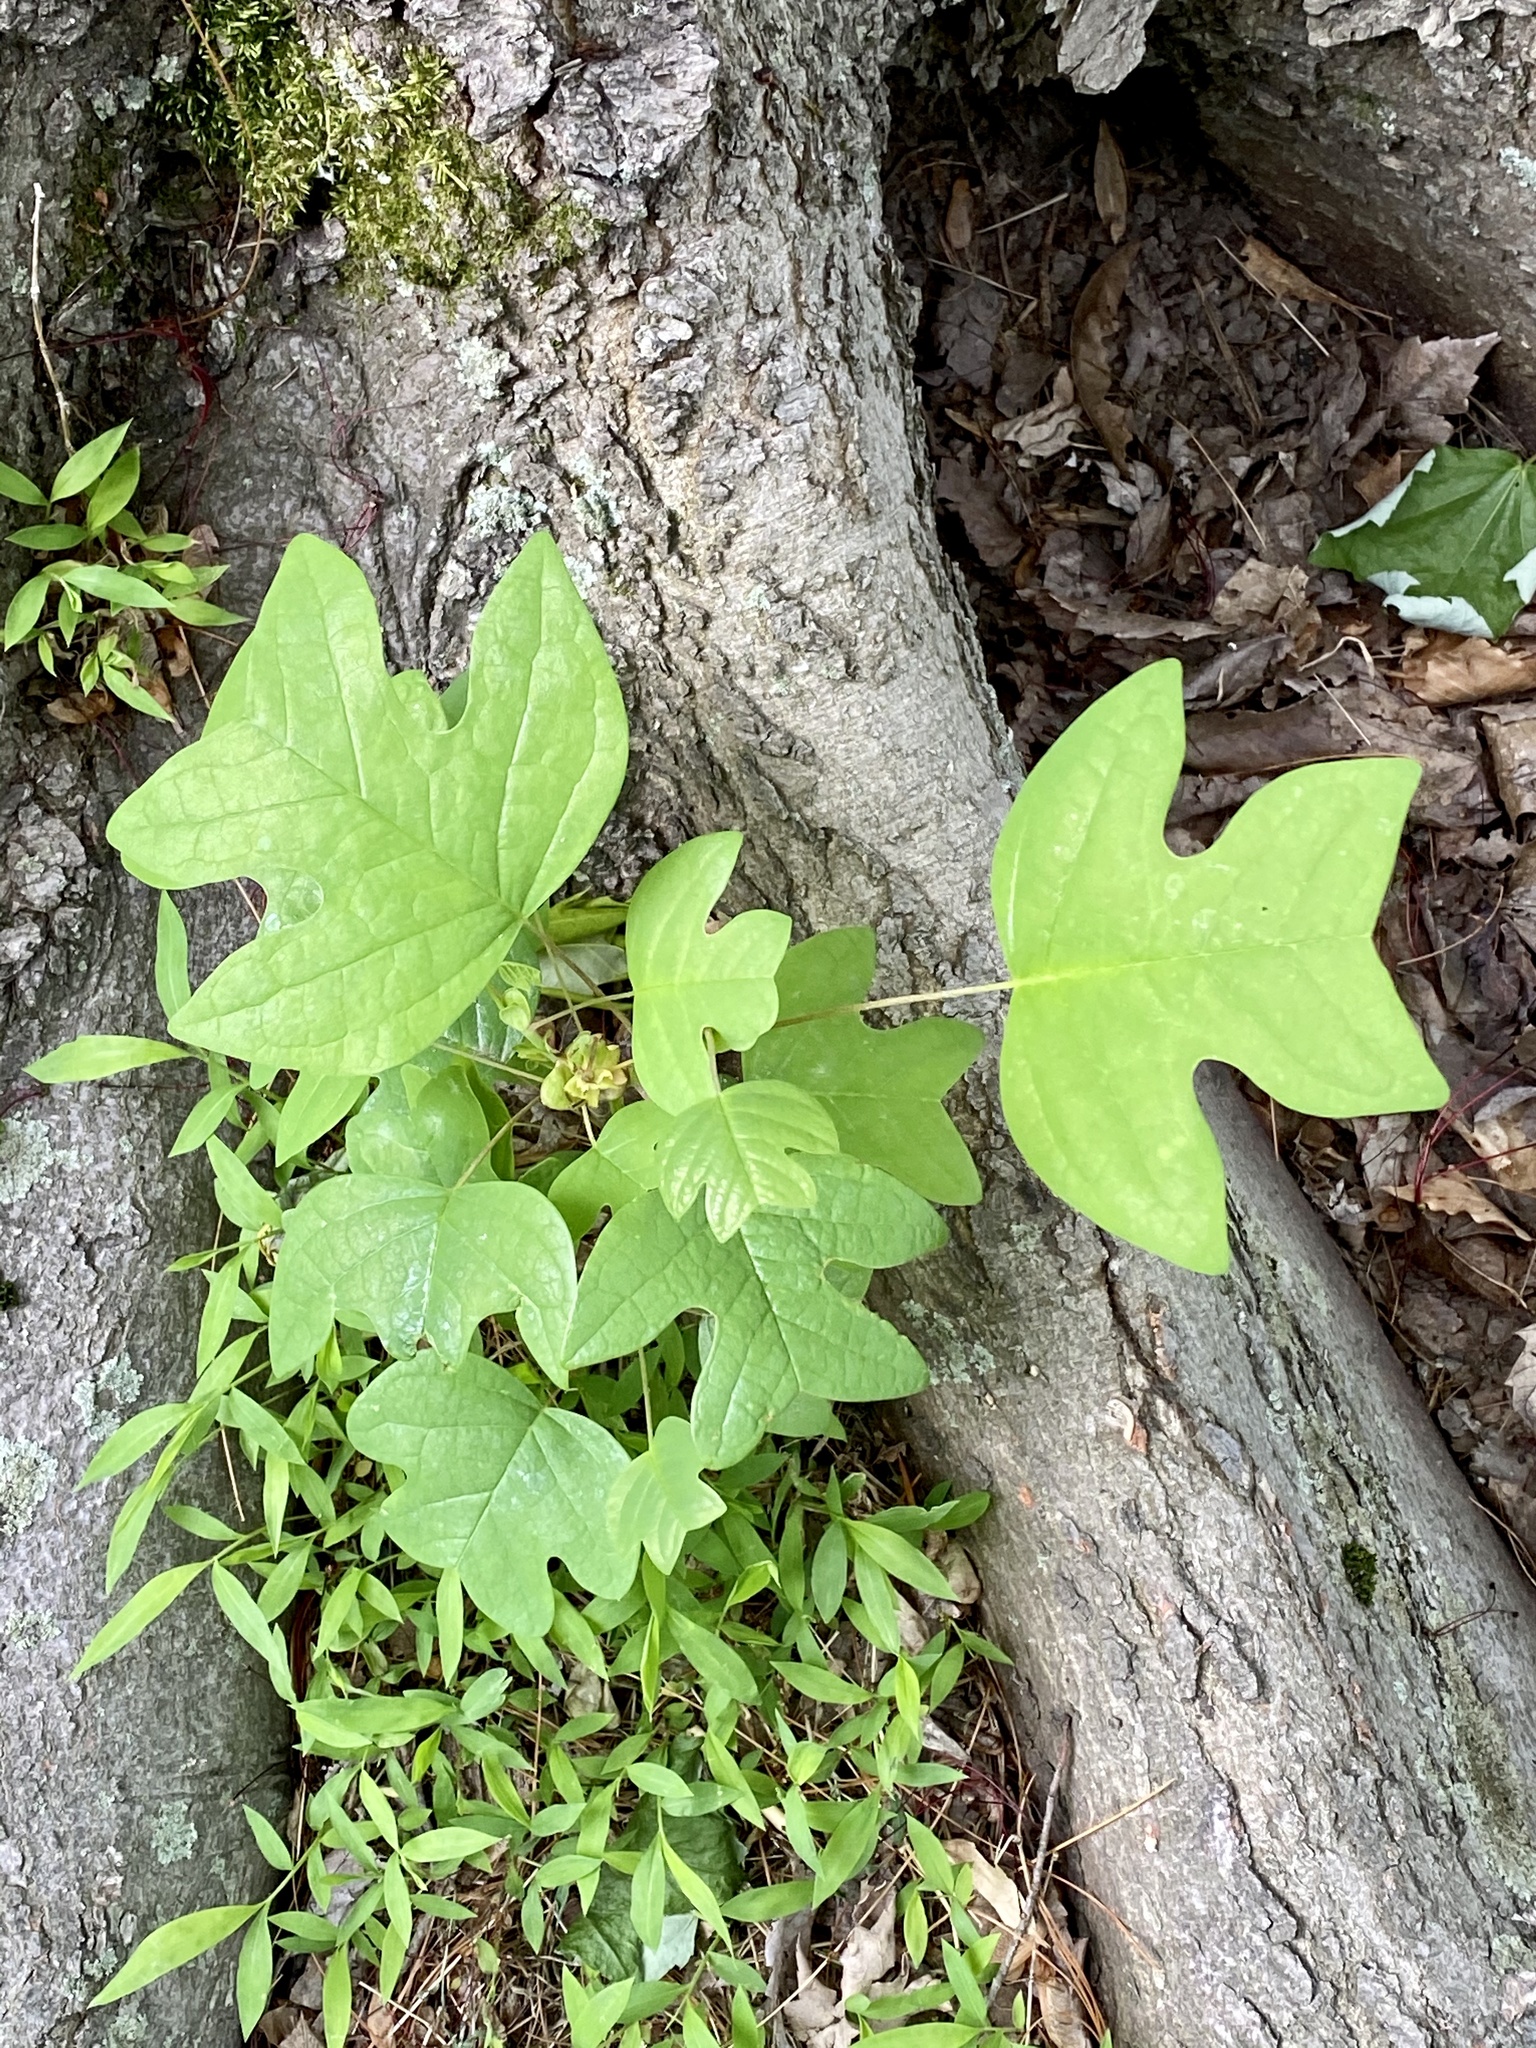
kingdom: Plantae
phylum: Tracheophyta
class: Magnoliopsida
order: Magnoliales
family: Magnoliaceae
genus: Liriodendron
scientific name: Liriodendron tulipifera
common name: Tulip tree
